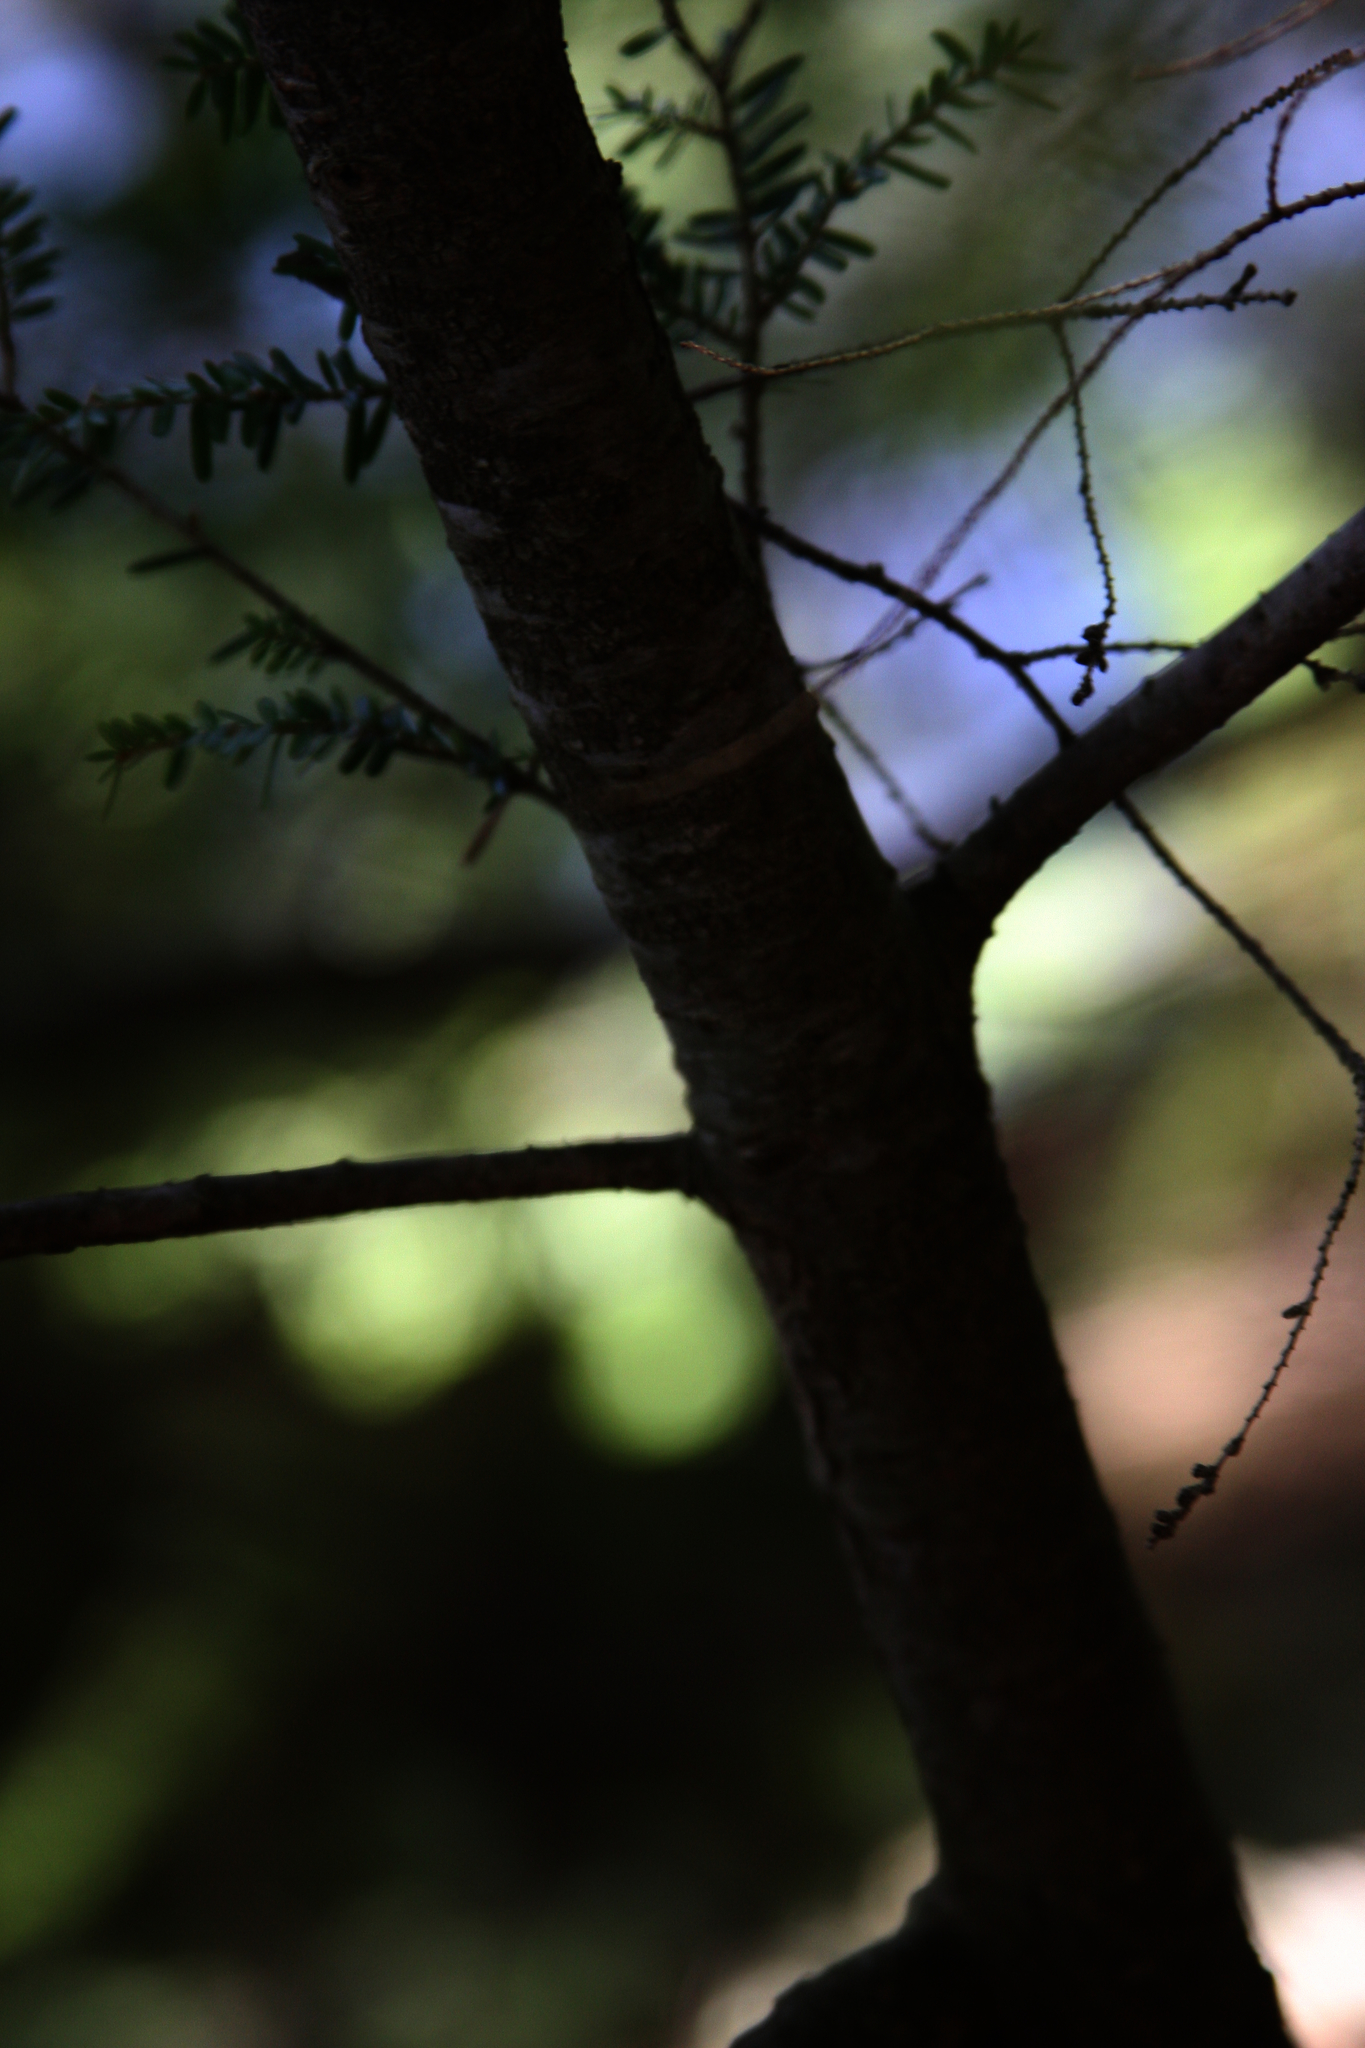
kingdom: Plantae
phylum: Tracheophyta
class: Pinopsida
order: Pinales
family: Pinaceae
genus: Tsuga
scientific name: Tsuga canadensis
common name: Eastern hemlock
